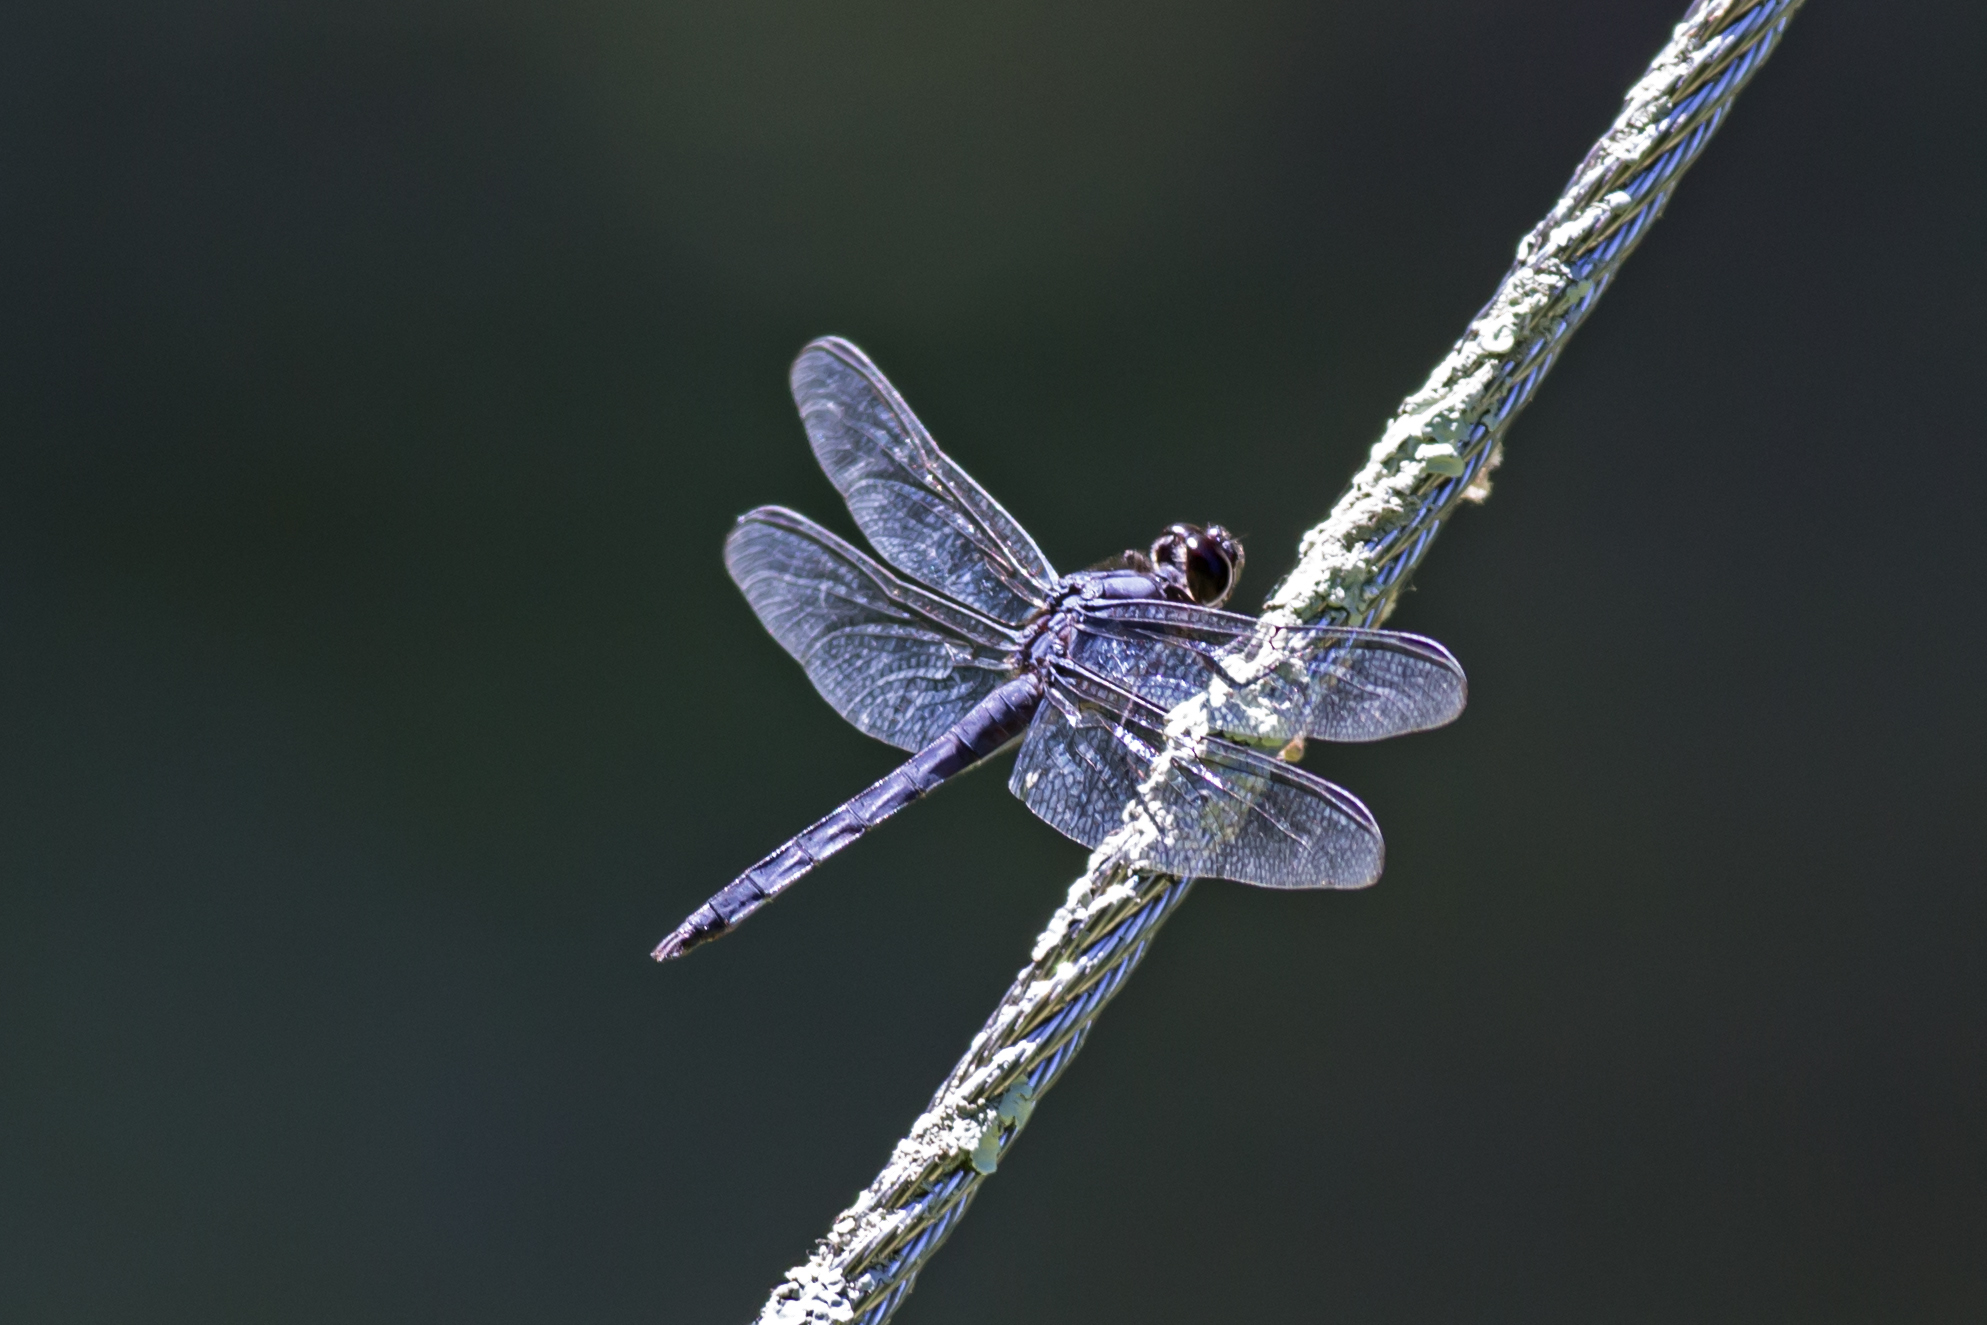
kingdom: Animalia
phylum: Arthropoda
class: Insecta
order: Odonata
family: Libellulidae
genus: Libellula
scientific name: Libellula incesta
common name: Slaty skimmer
